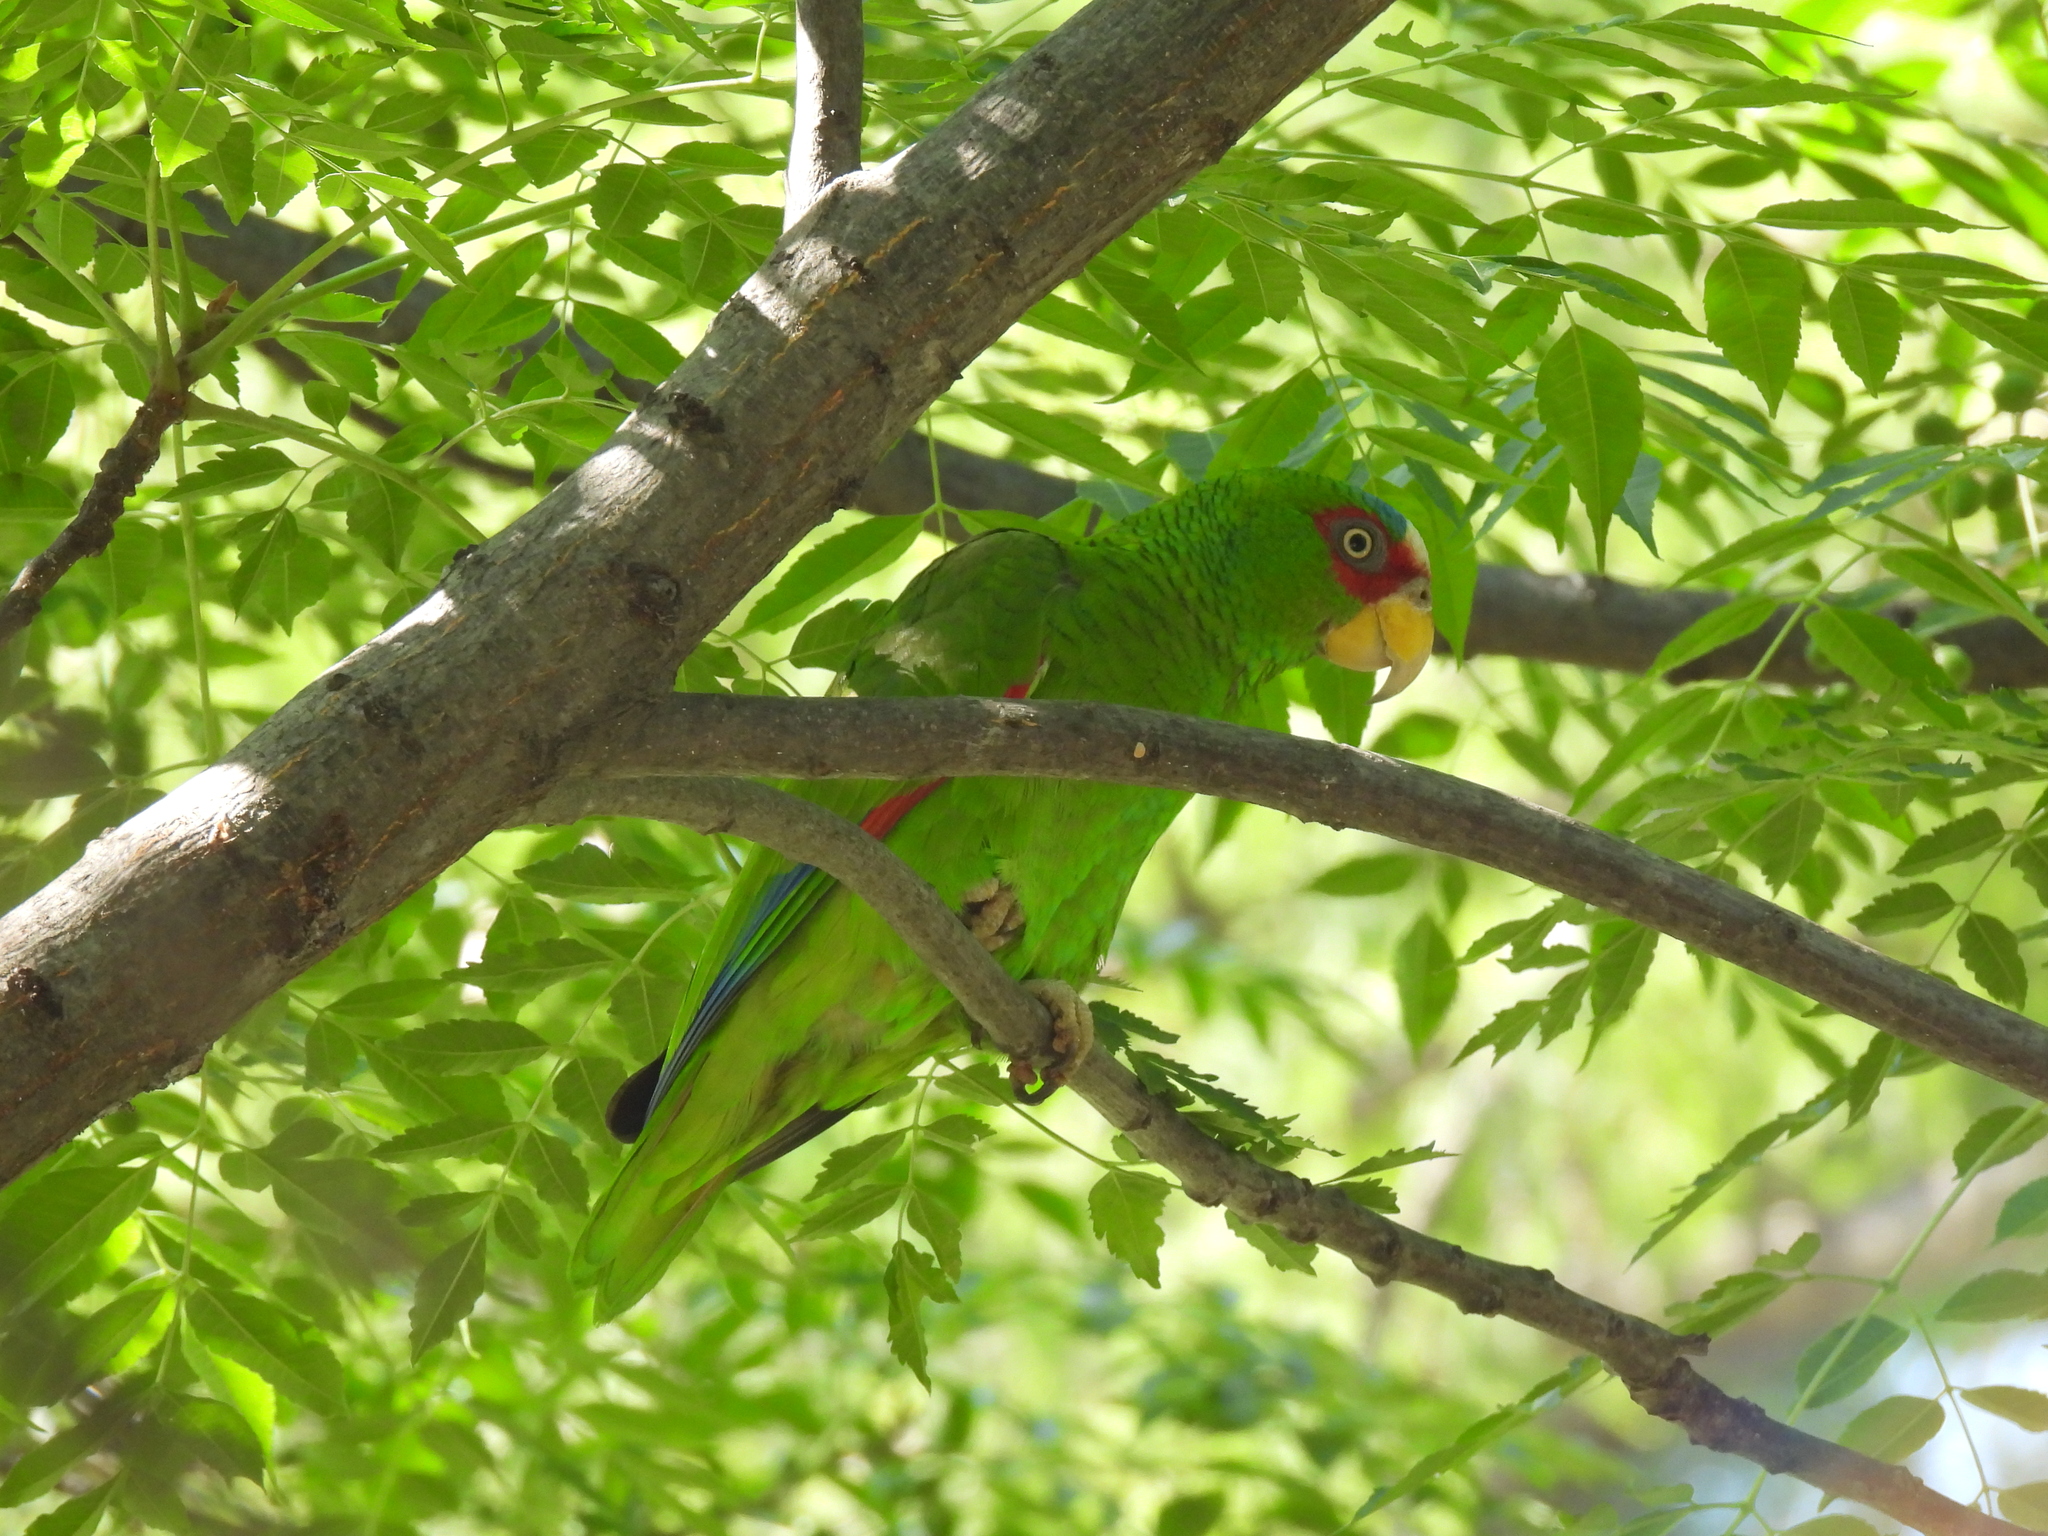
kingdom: Animalia
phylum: Chordata
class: Aves
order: Psittaciformes
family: Psittacidae
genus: Amazona
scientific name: Amazona albifrons
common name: White-fronted amazon
